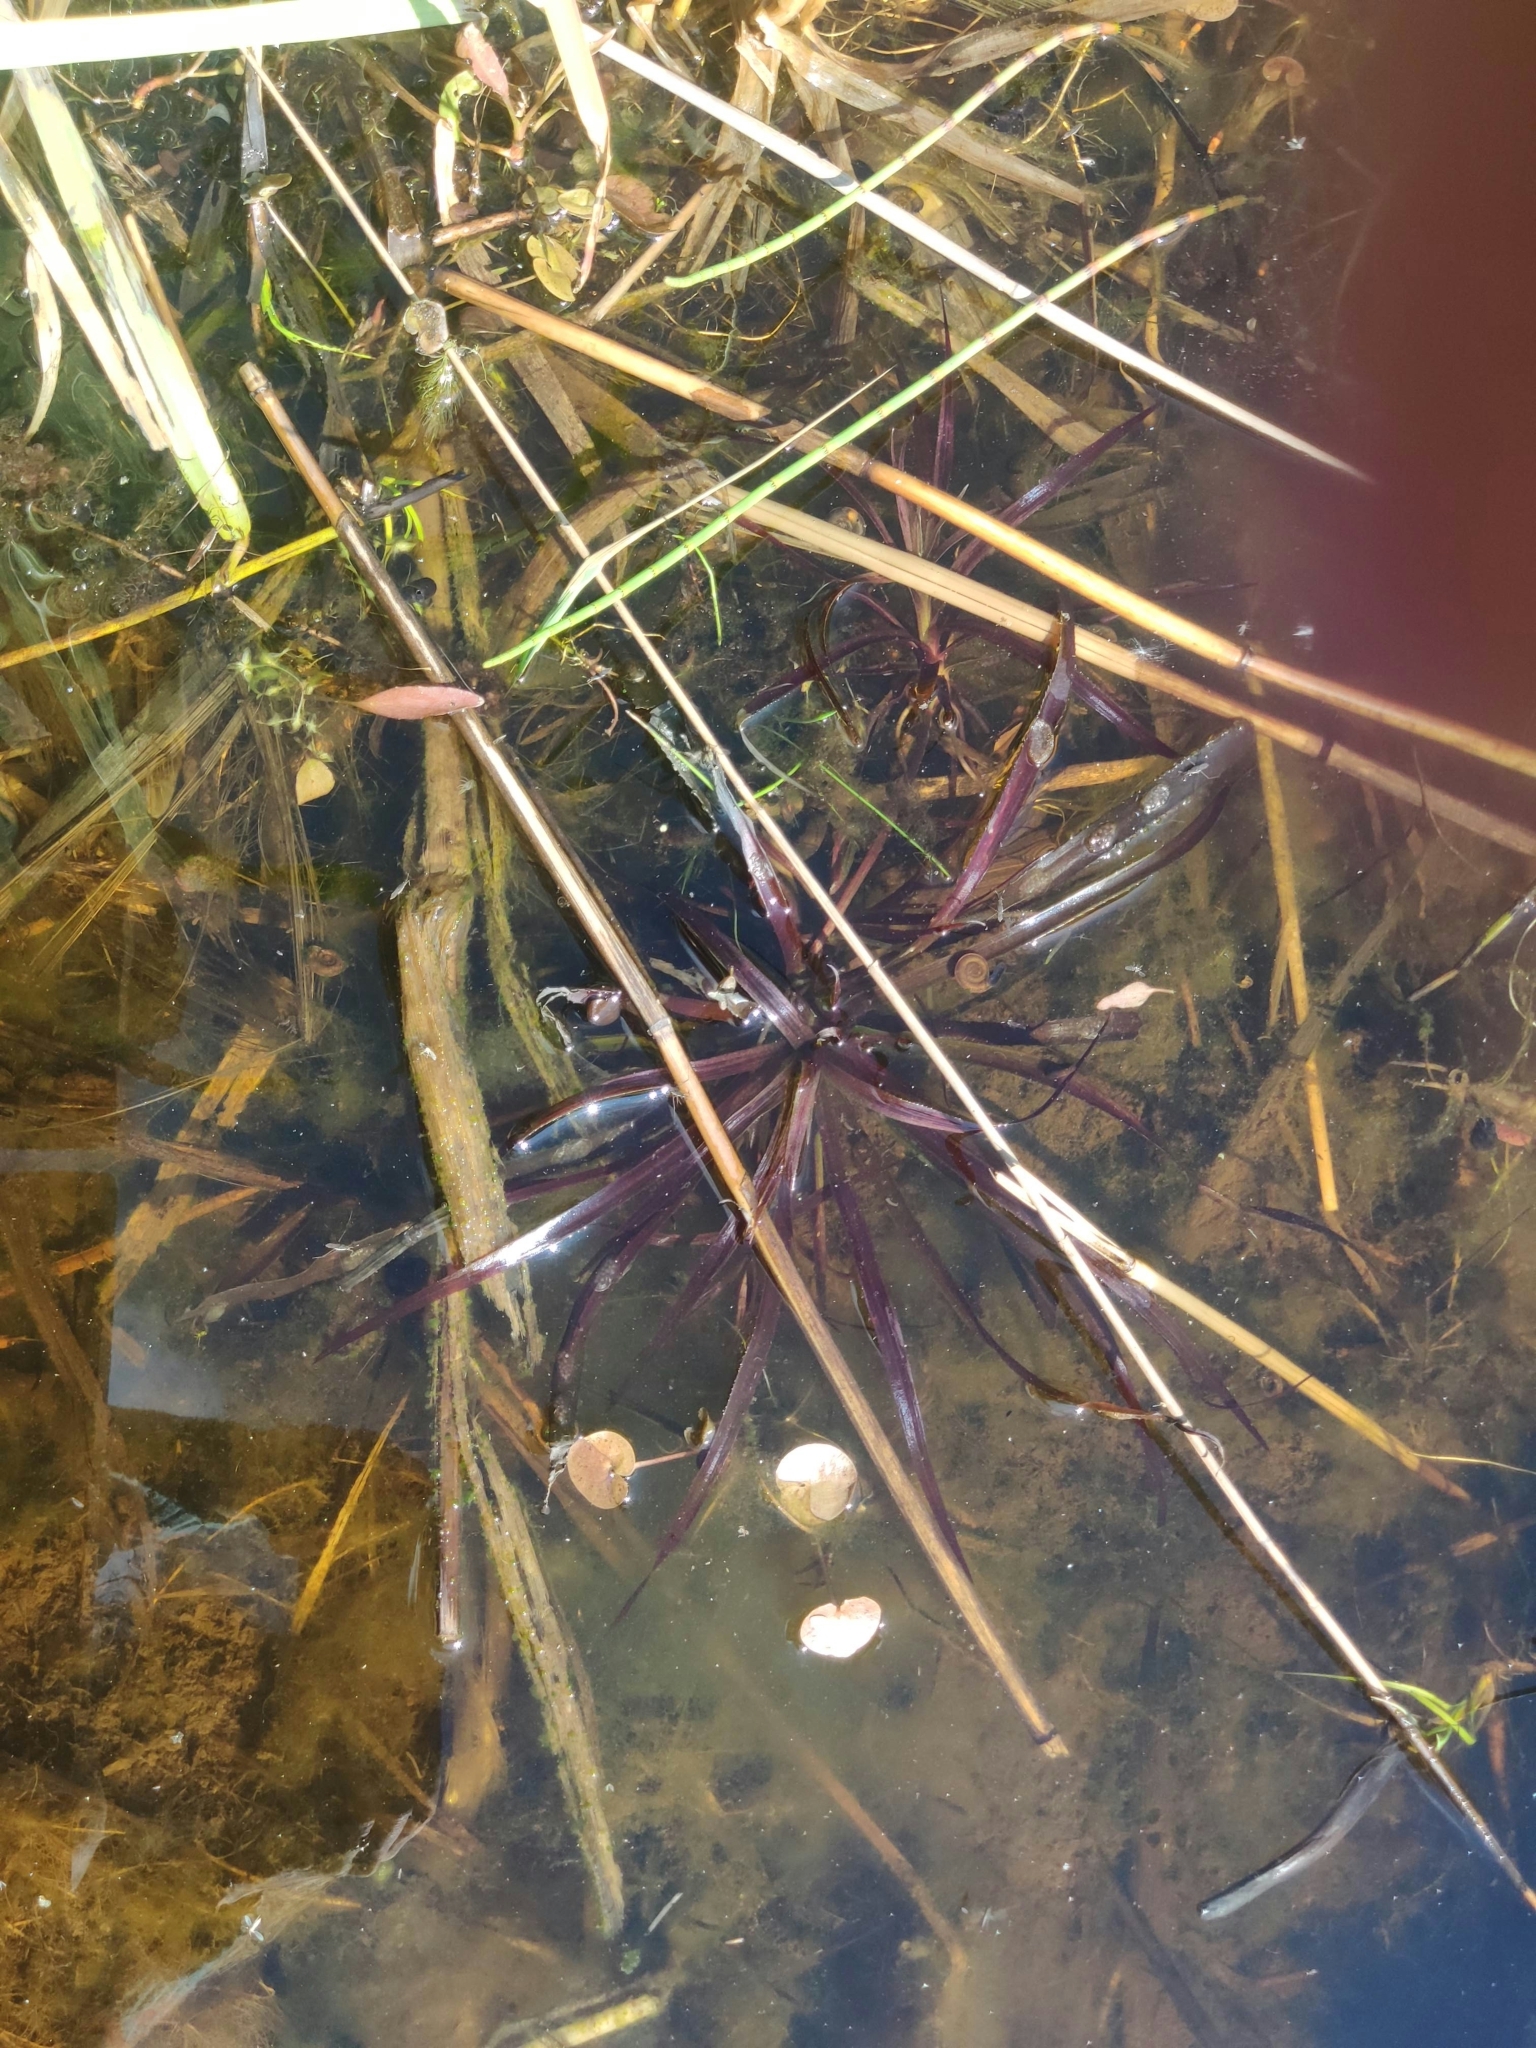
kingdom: Plantae
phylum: Tracheophyta
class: Liliopsida
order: Alismatales
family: Hydrocharitaceae
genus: Stratiotes
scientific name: Stratiotes aloides
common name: Water-soldier
